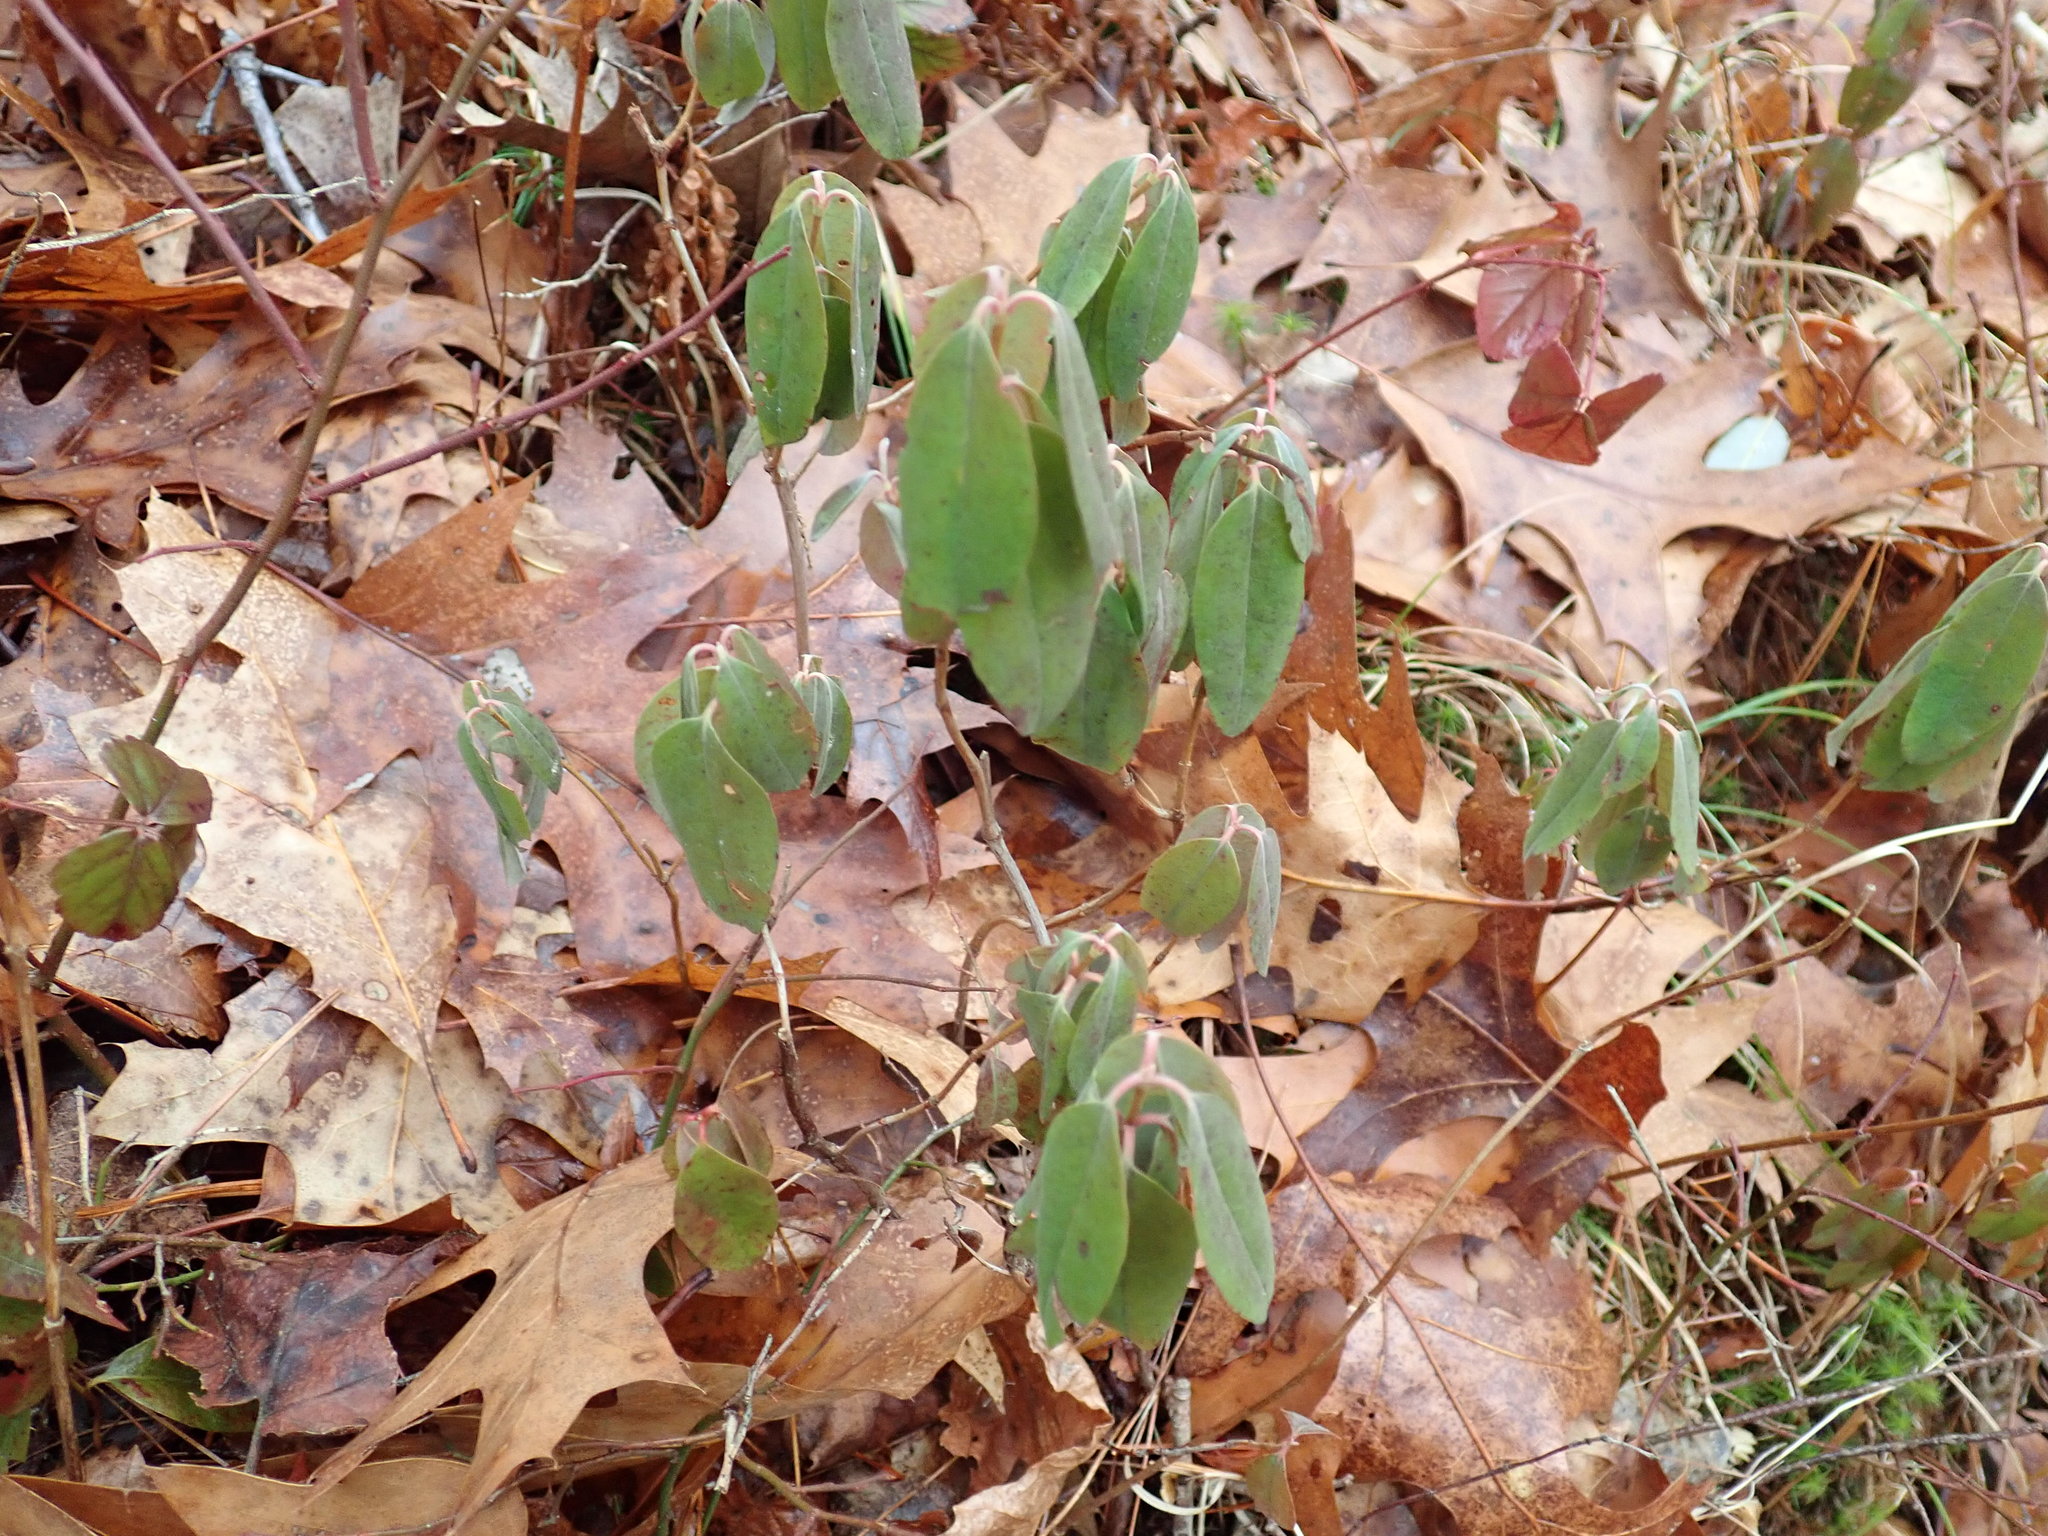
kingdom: Plantae
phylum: Tracheophyta
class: Magnoliopsida
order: Ericales
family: Ericaceae
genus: Kalmia
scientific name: Kalmia angustifolia
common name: Sheep-laurel
